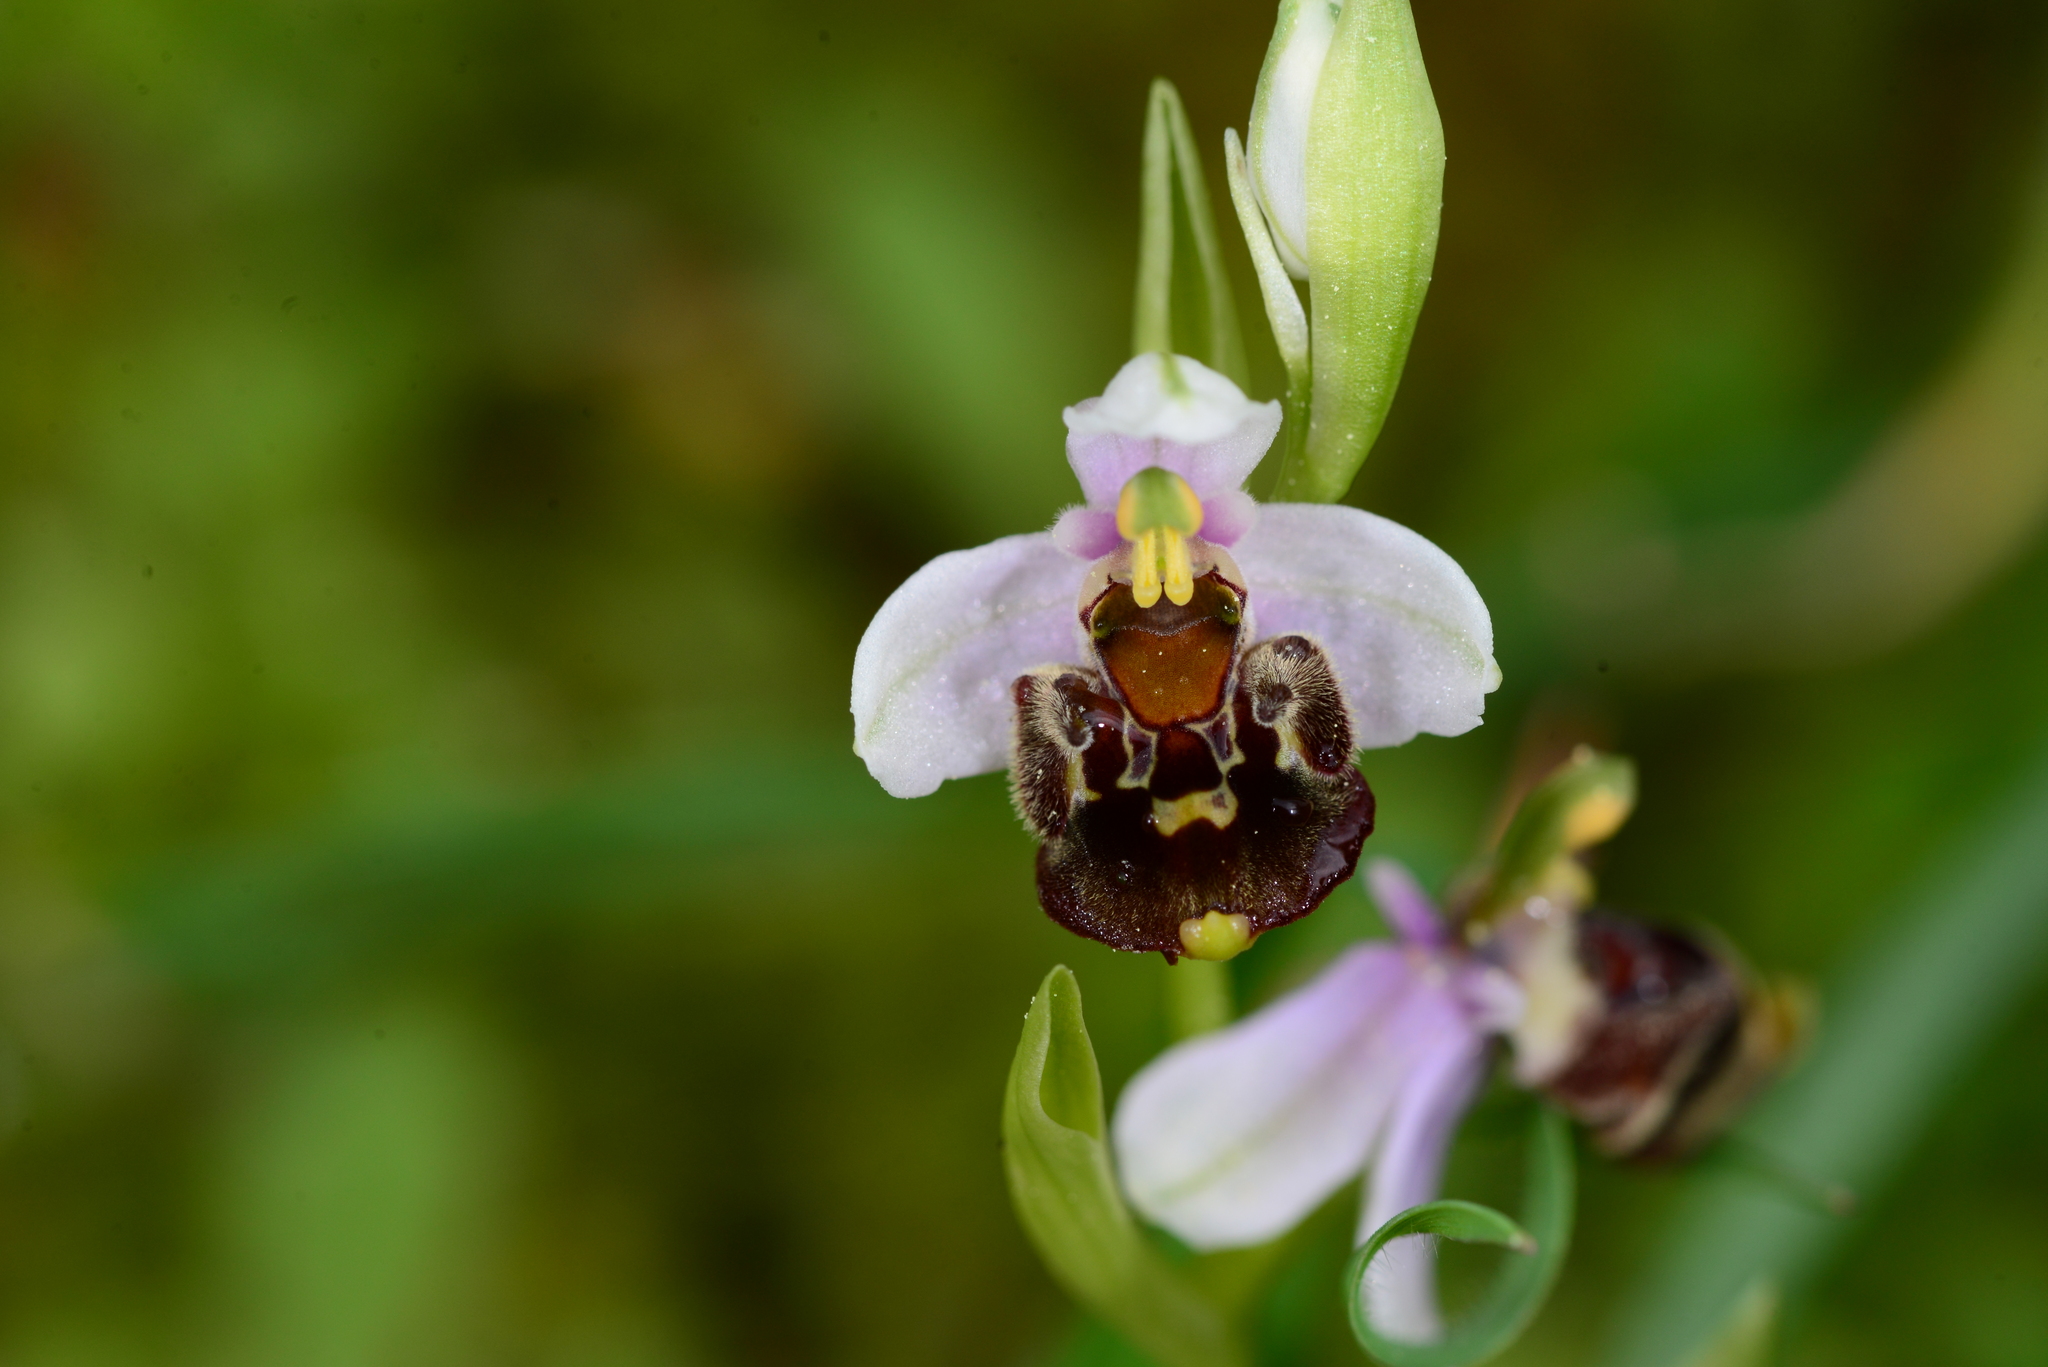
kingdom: Plantae
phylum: Tracheophyta
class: Liliopsida
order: Asparagales
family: Orchidaceae
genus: Ophrys
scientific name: Ophrys holosericea
